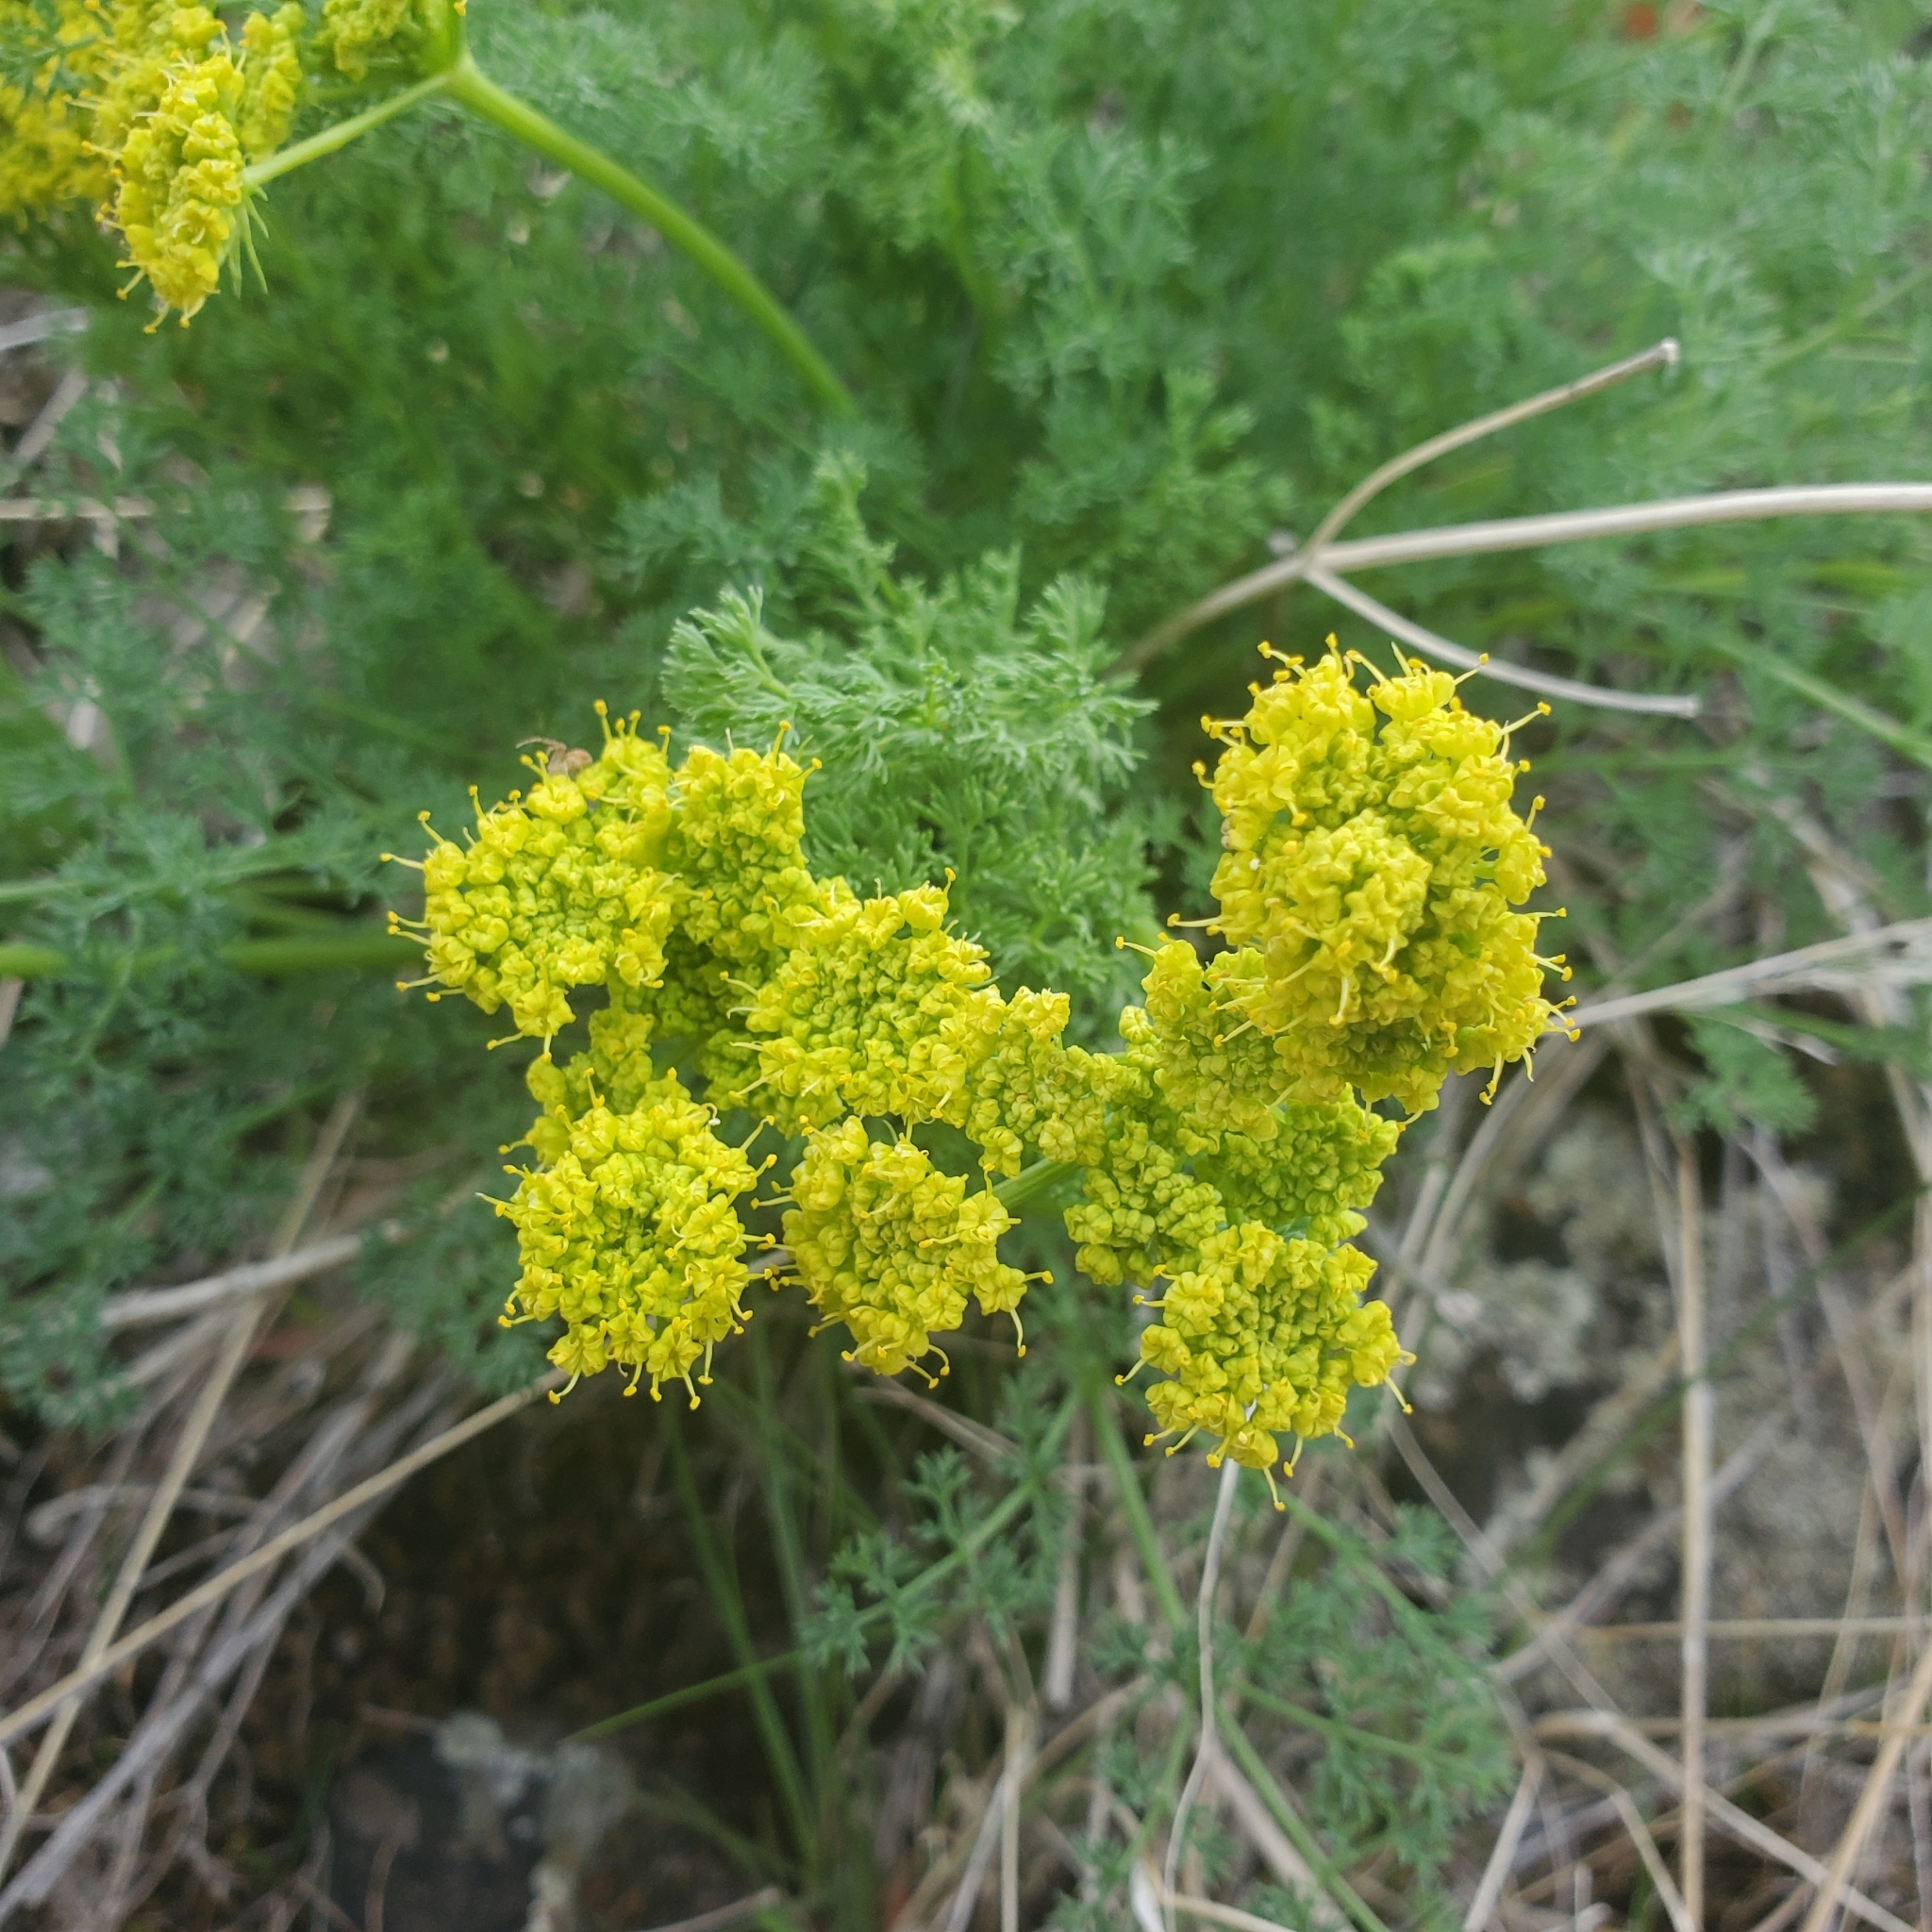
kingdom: Plantae
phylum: Tracheophyta
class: Magnoliopsida
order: Apiales
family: Apiaceae
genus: Lomatium
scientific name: Lomatium papilioniferum
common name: Butterfly lomatium
